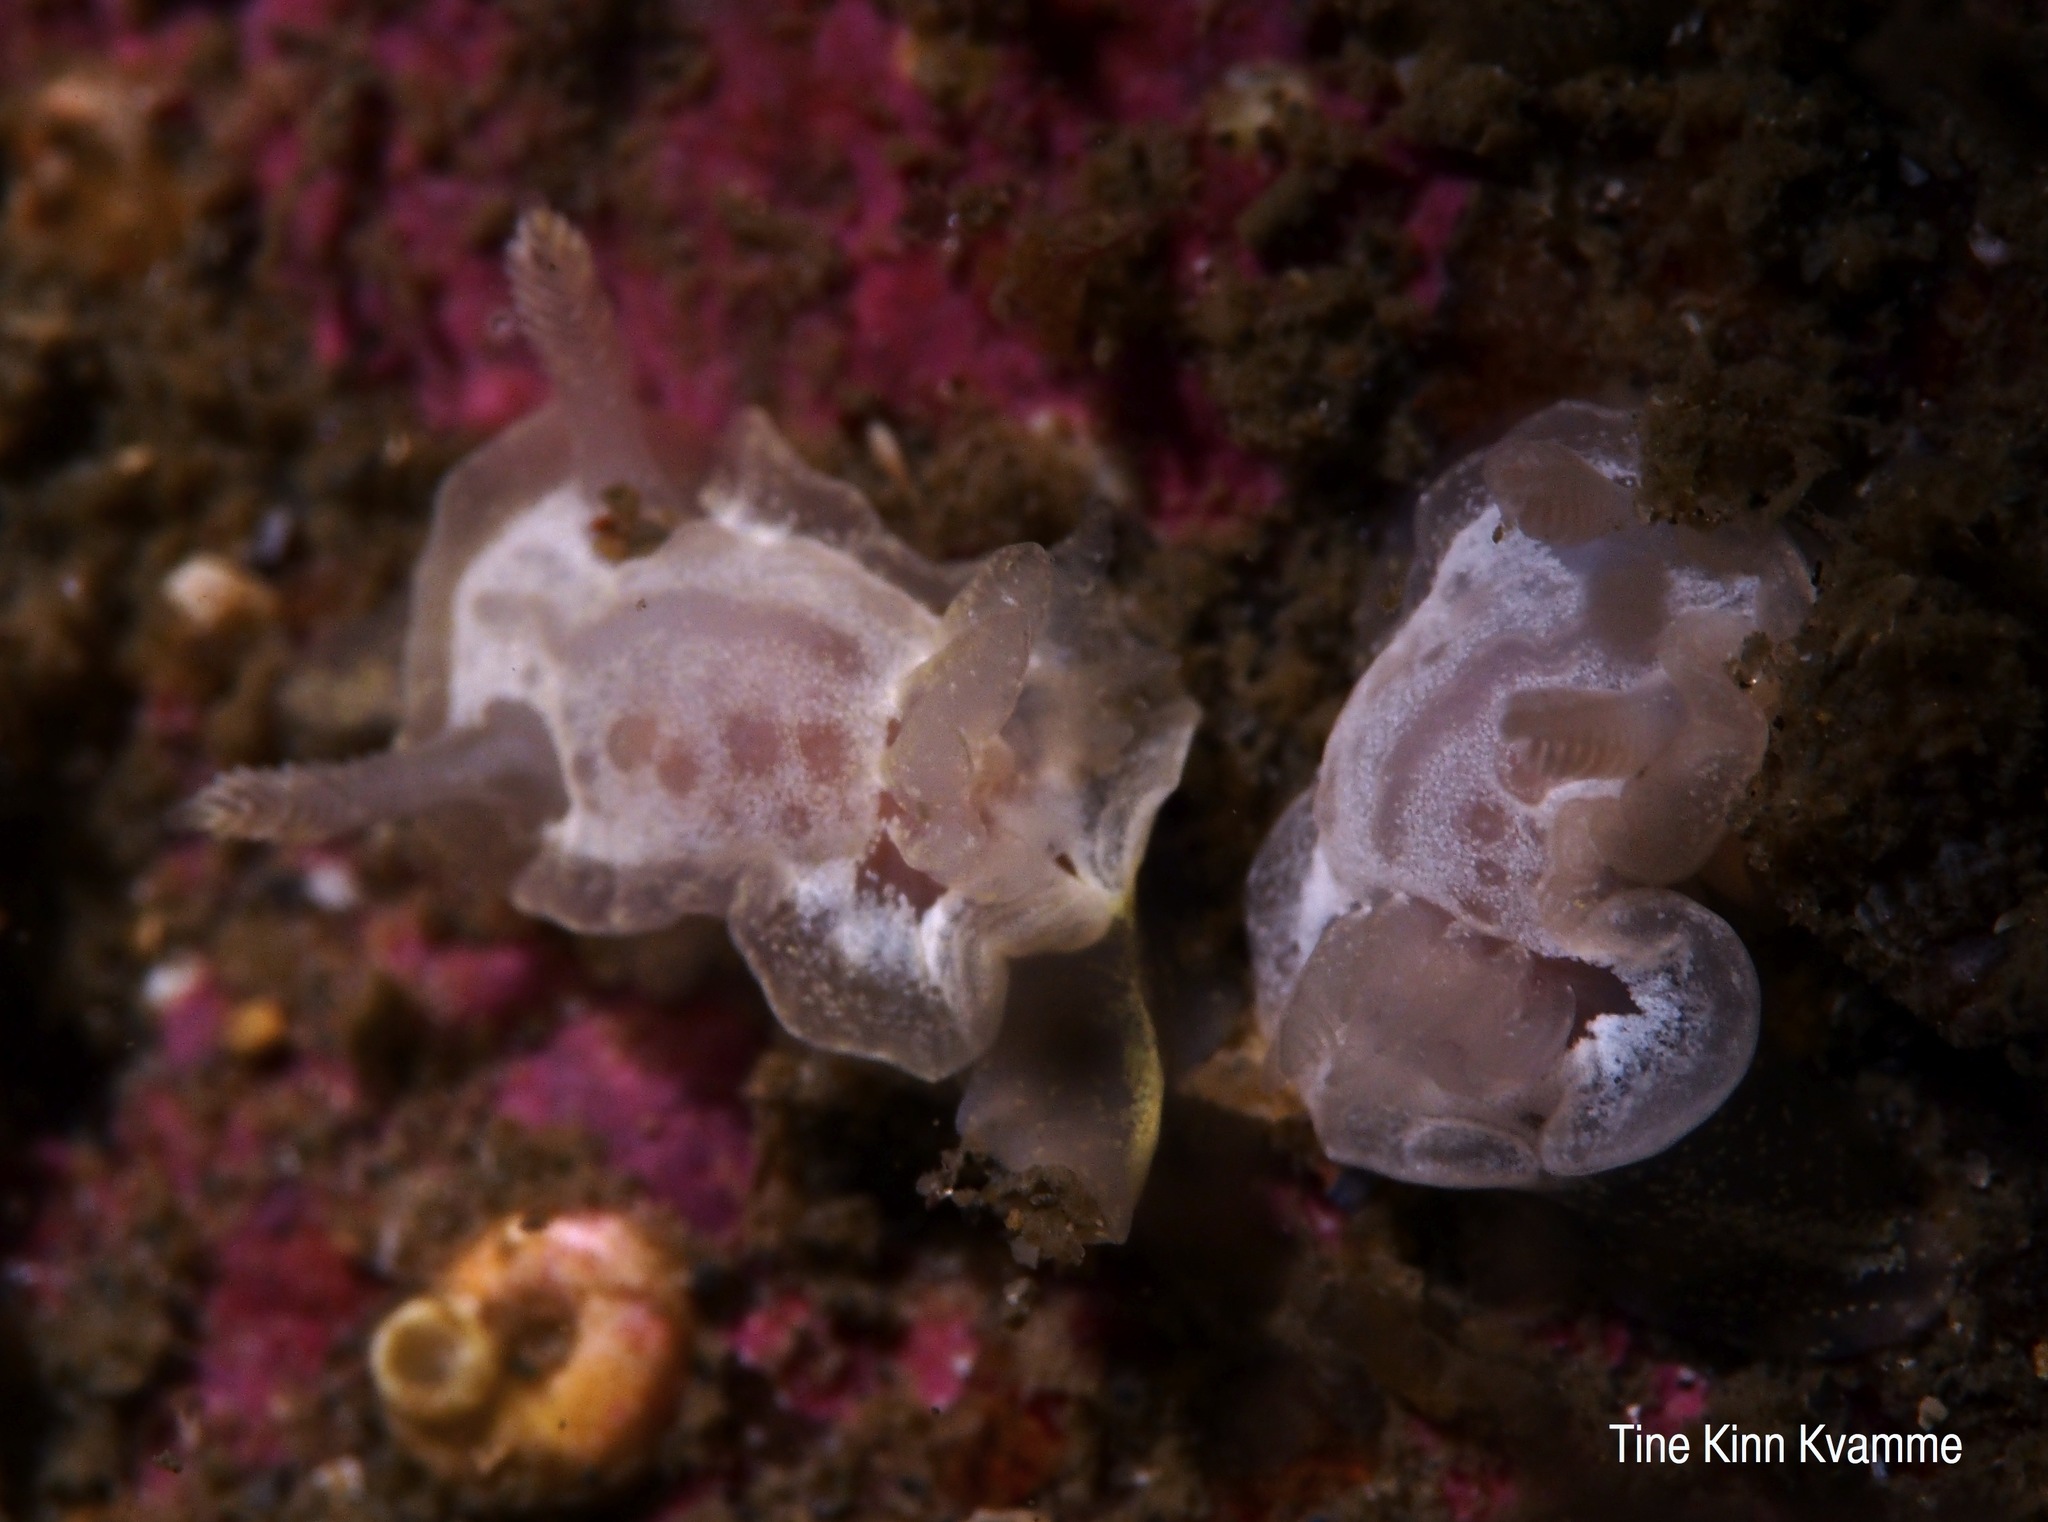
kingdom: Animalia
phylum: Mollusca
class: Gastropoda
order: Nudibranchia
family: Goniodorididae
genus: Okenia
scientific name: Okenia
